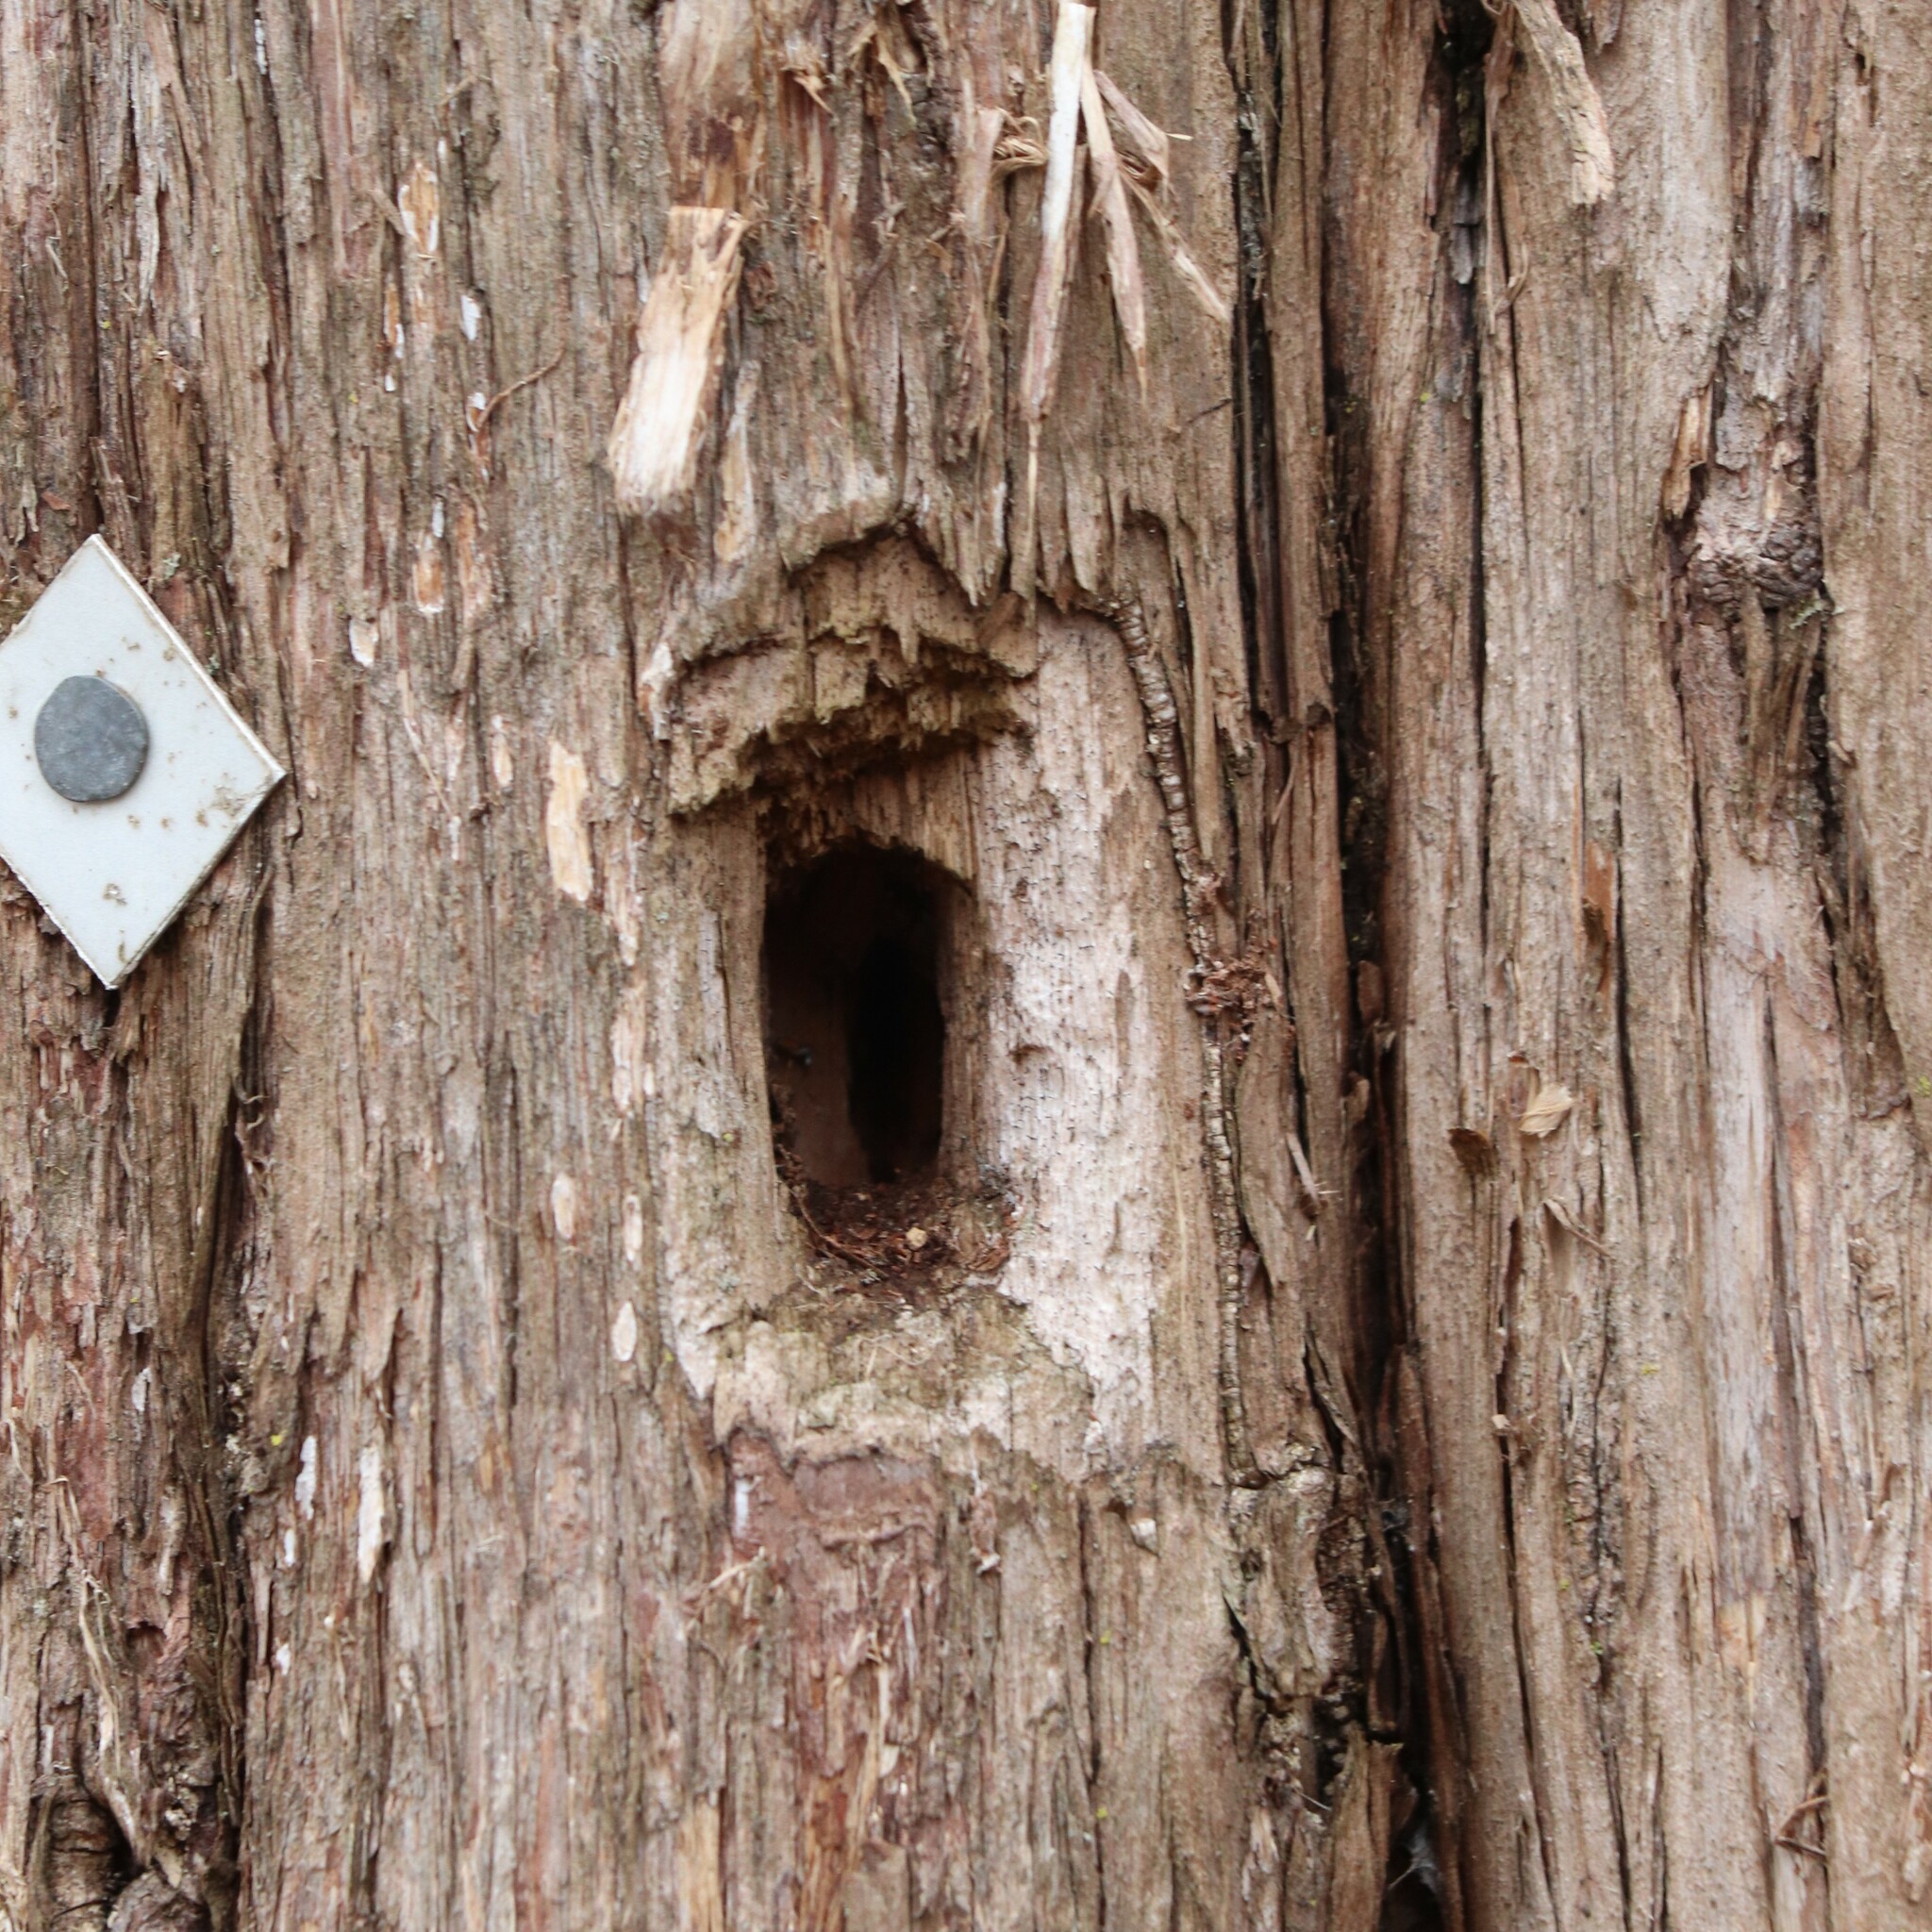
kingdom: Animalia
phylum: Chordata
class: Aves
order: Piciformes
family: Picidae
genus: Dryocopus
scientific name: Dryocopus pileatus
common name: Pileated woodpecker
